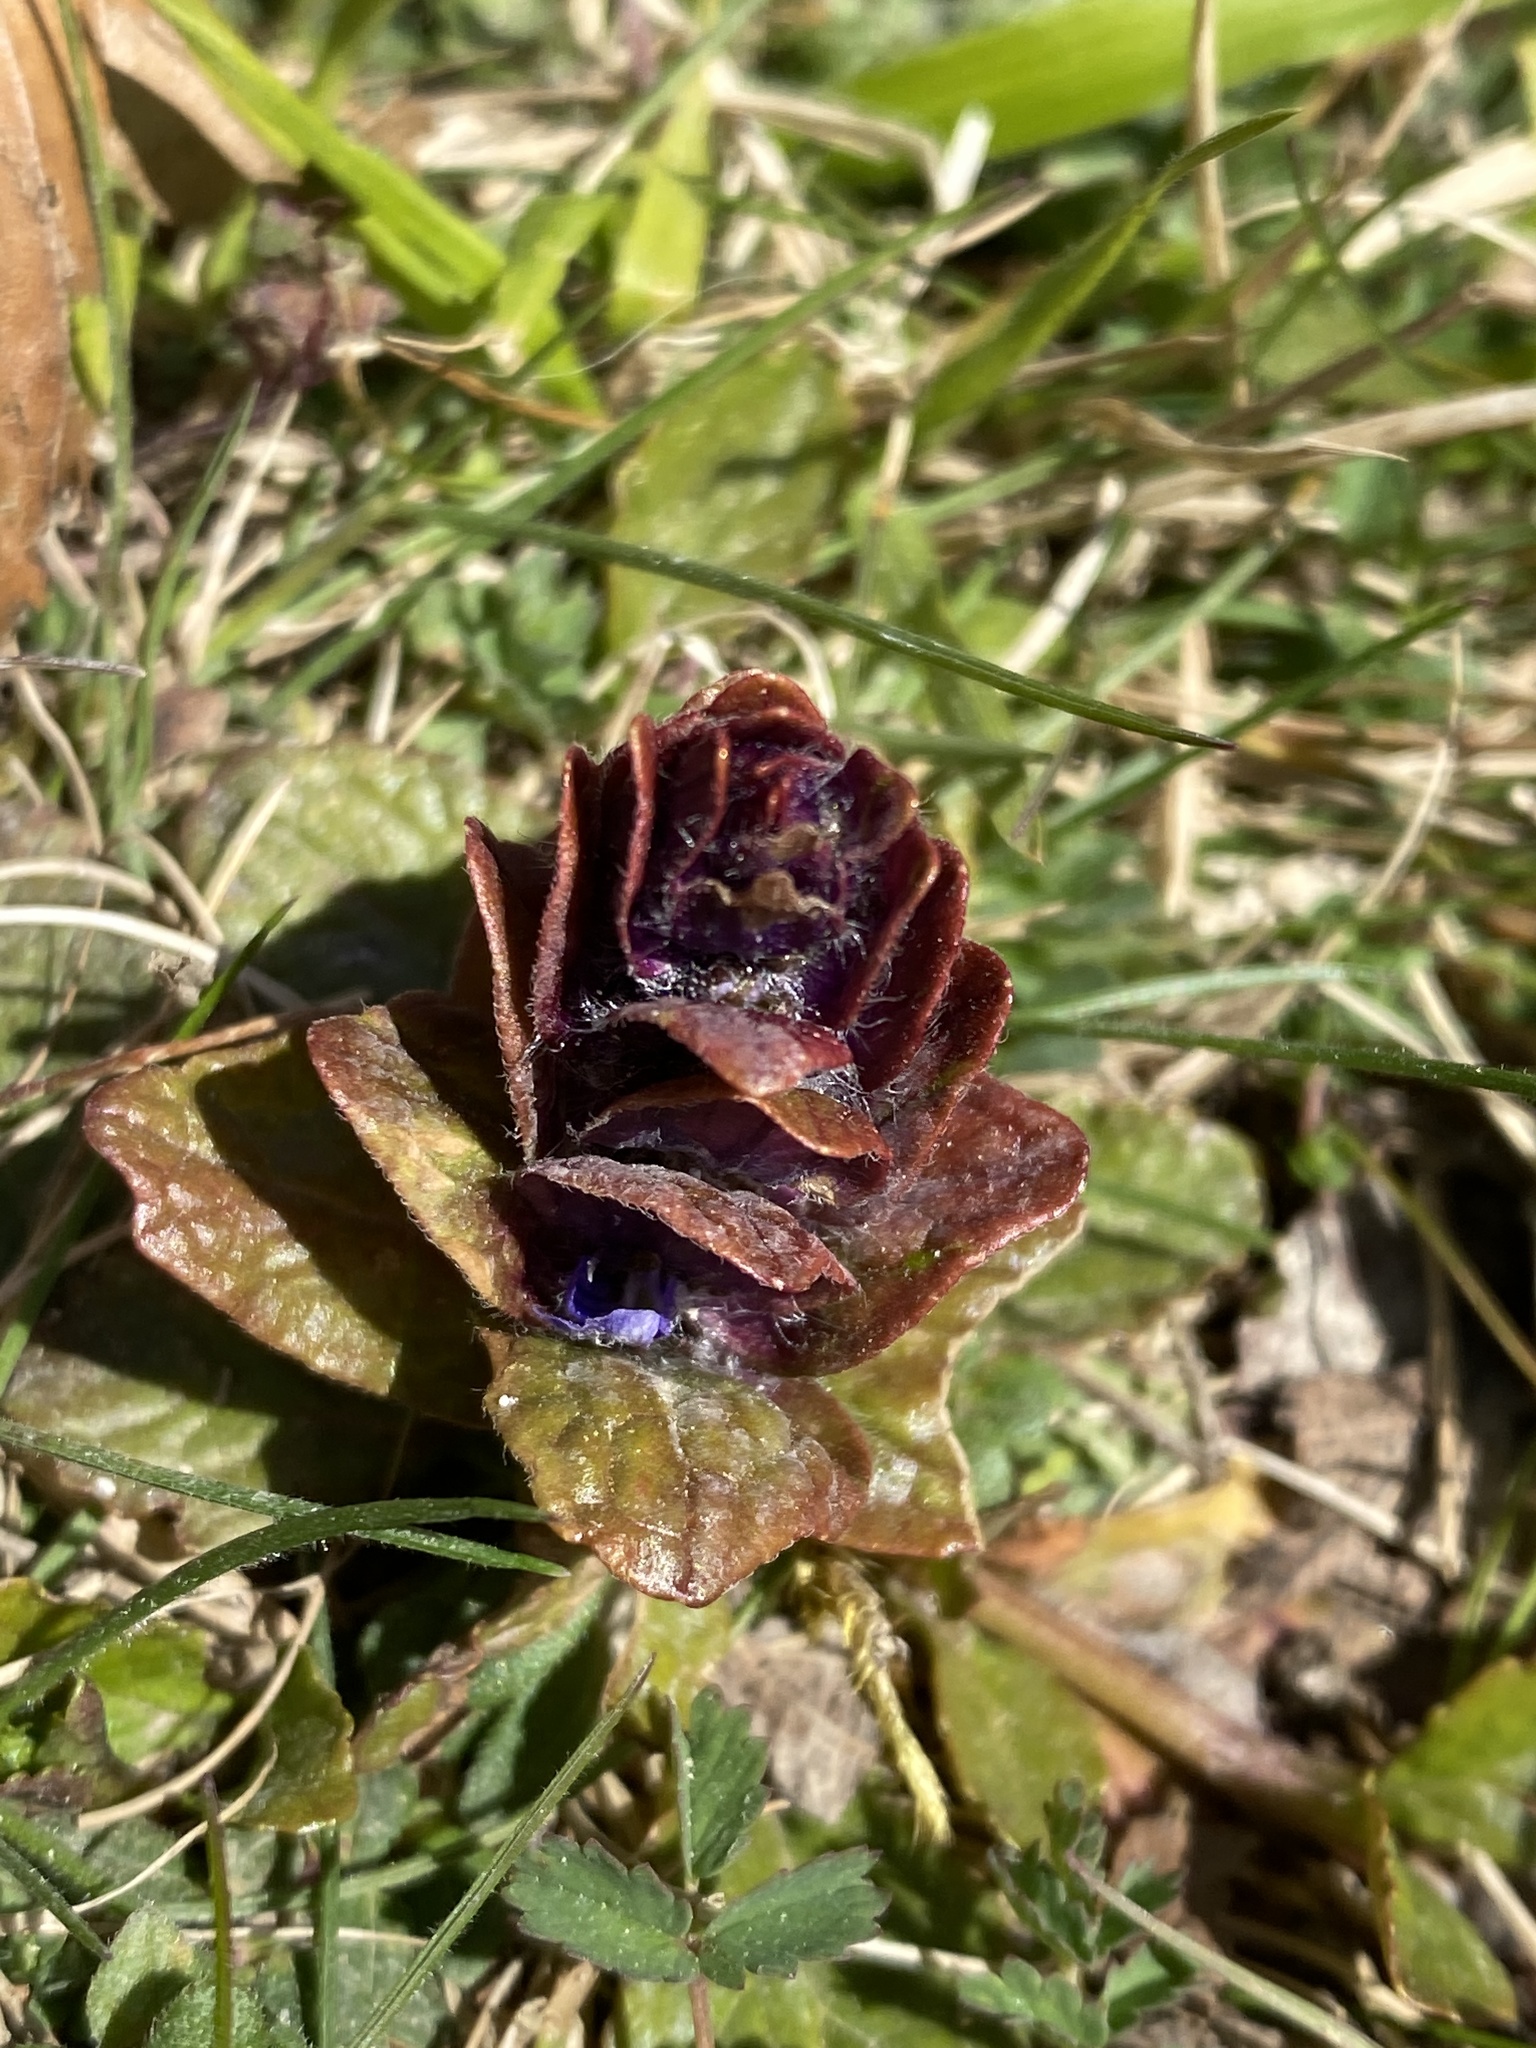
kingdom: Plantae
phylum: Tracheophyta
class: Magnoliopsida
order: Lamiales
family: Lamiaceae
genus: Ajuga
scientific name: Ajuga reptans
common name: Bugle
